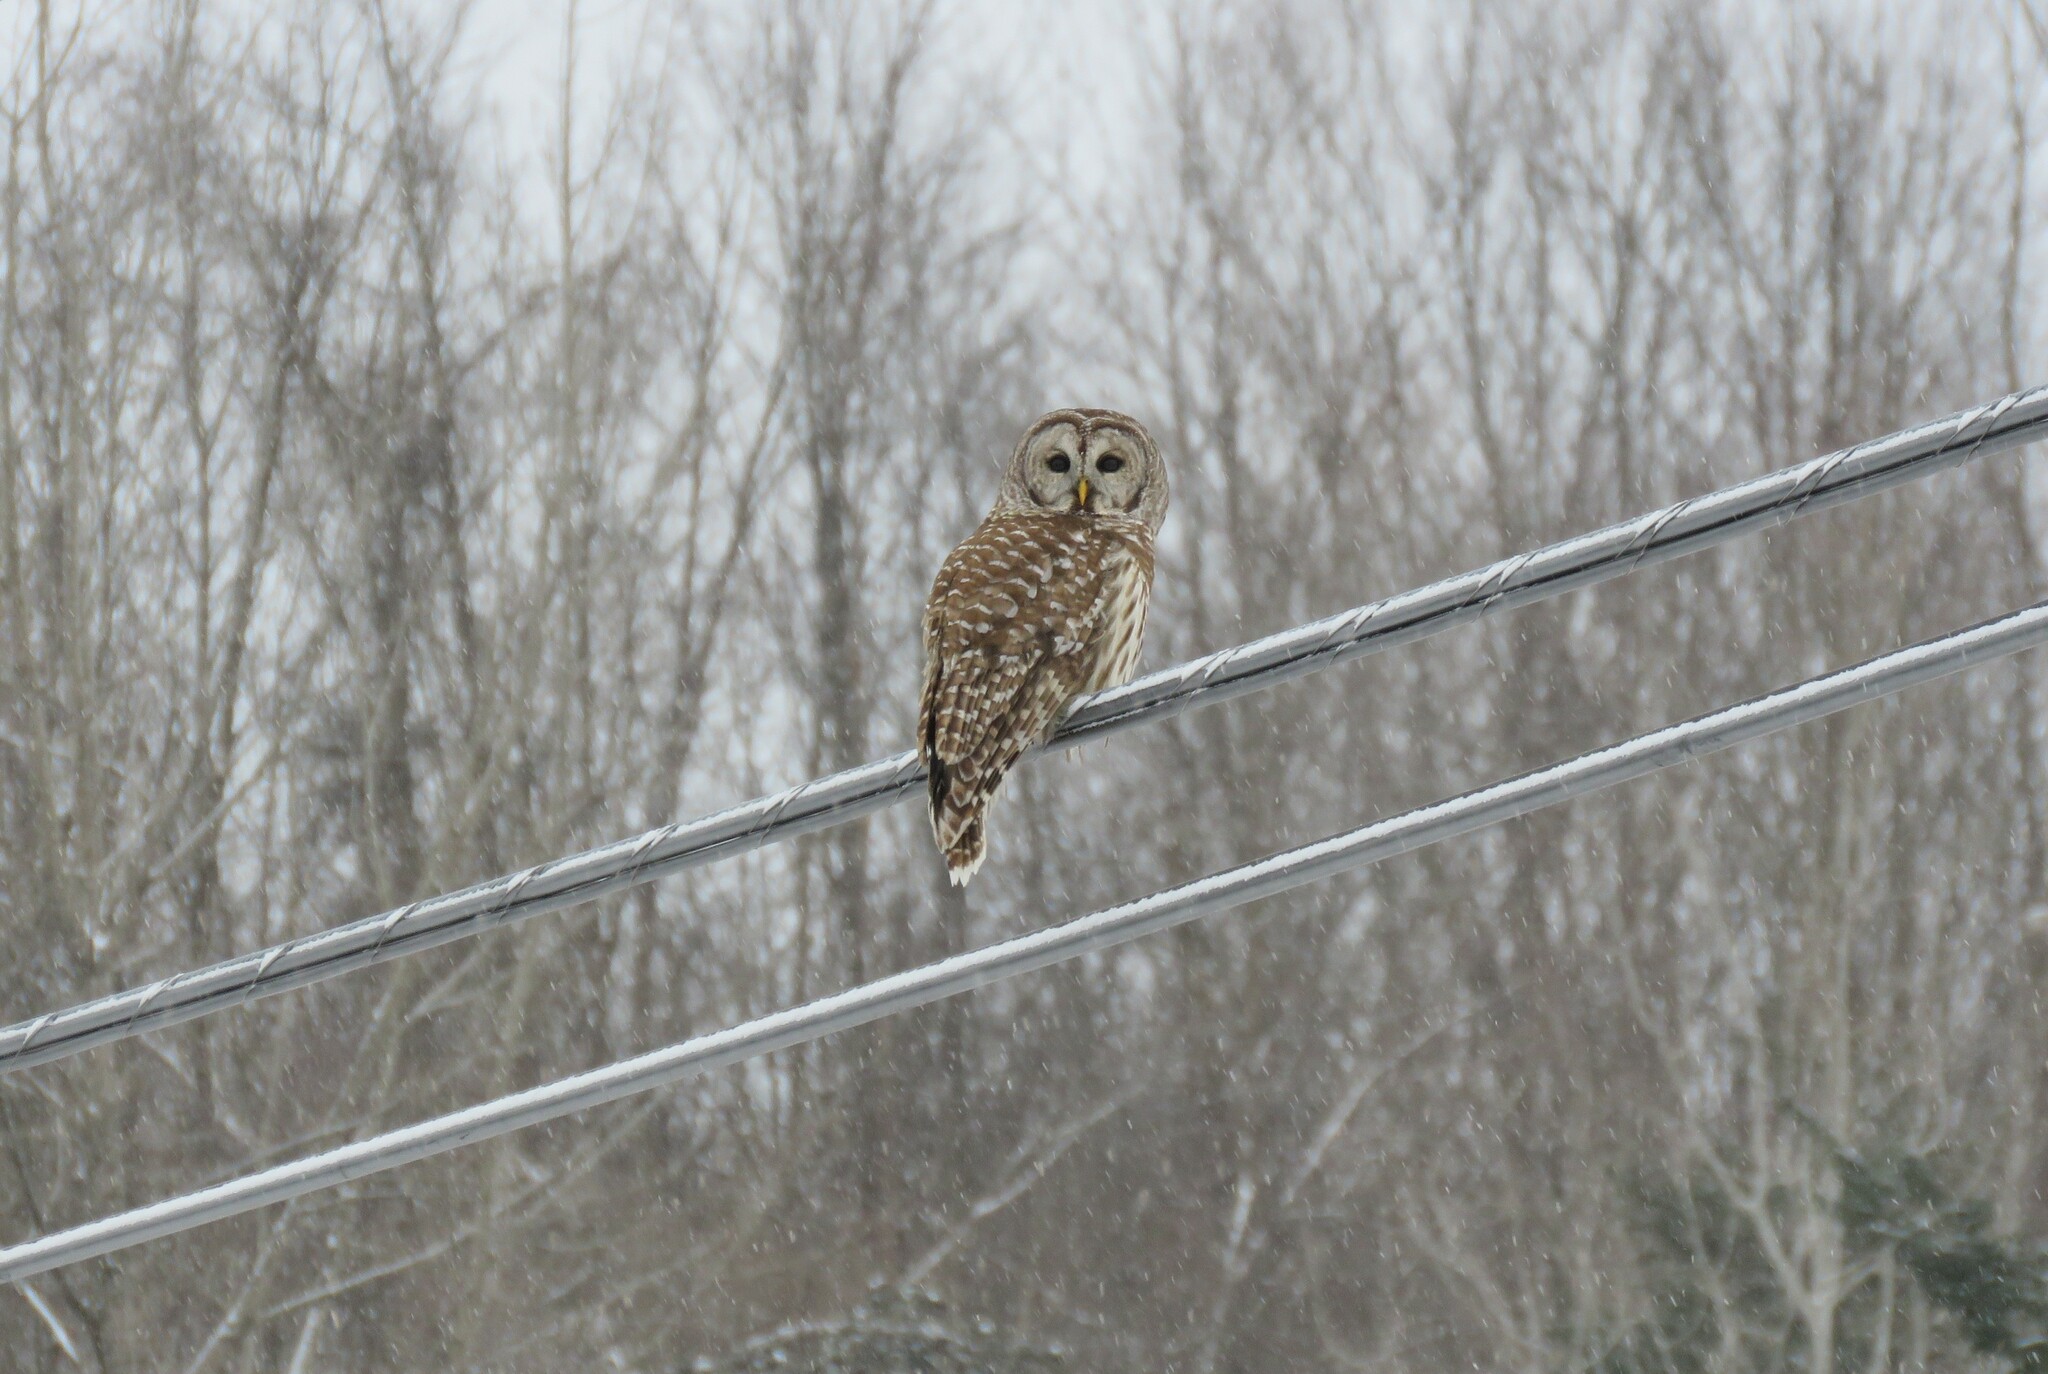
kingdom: Animalia
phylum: Chordata
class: Aves
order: Strigiformes
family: Strigidae
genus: Strix
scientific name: Strix varia
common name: Barred owl
